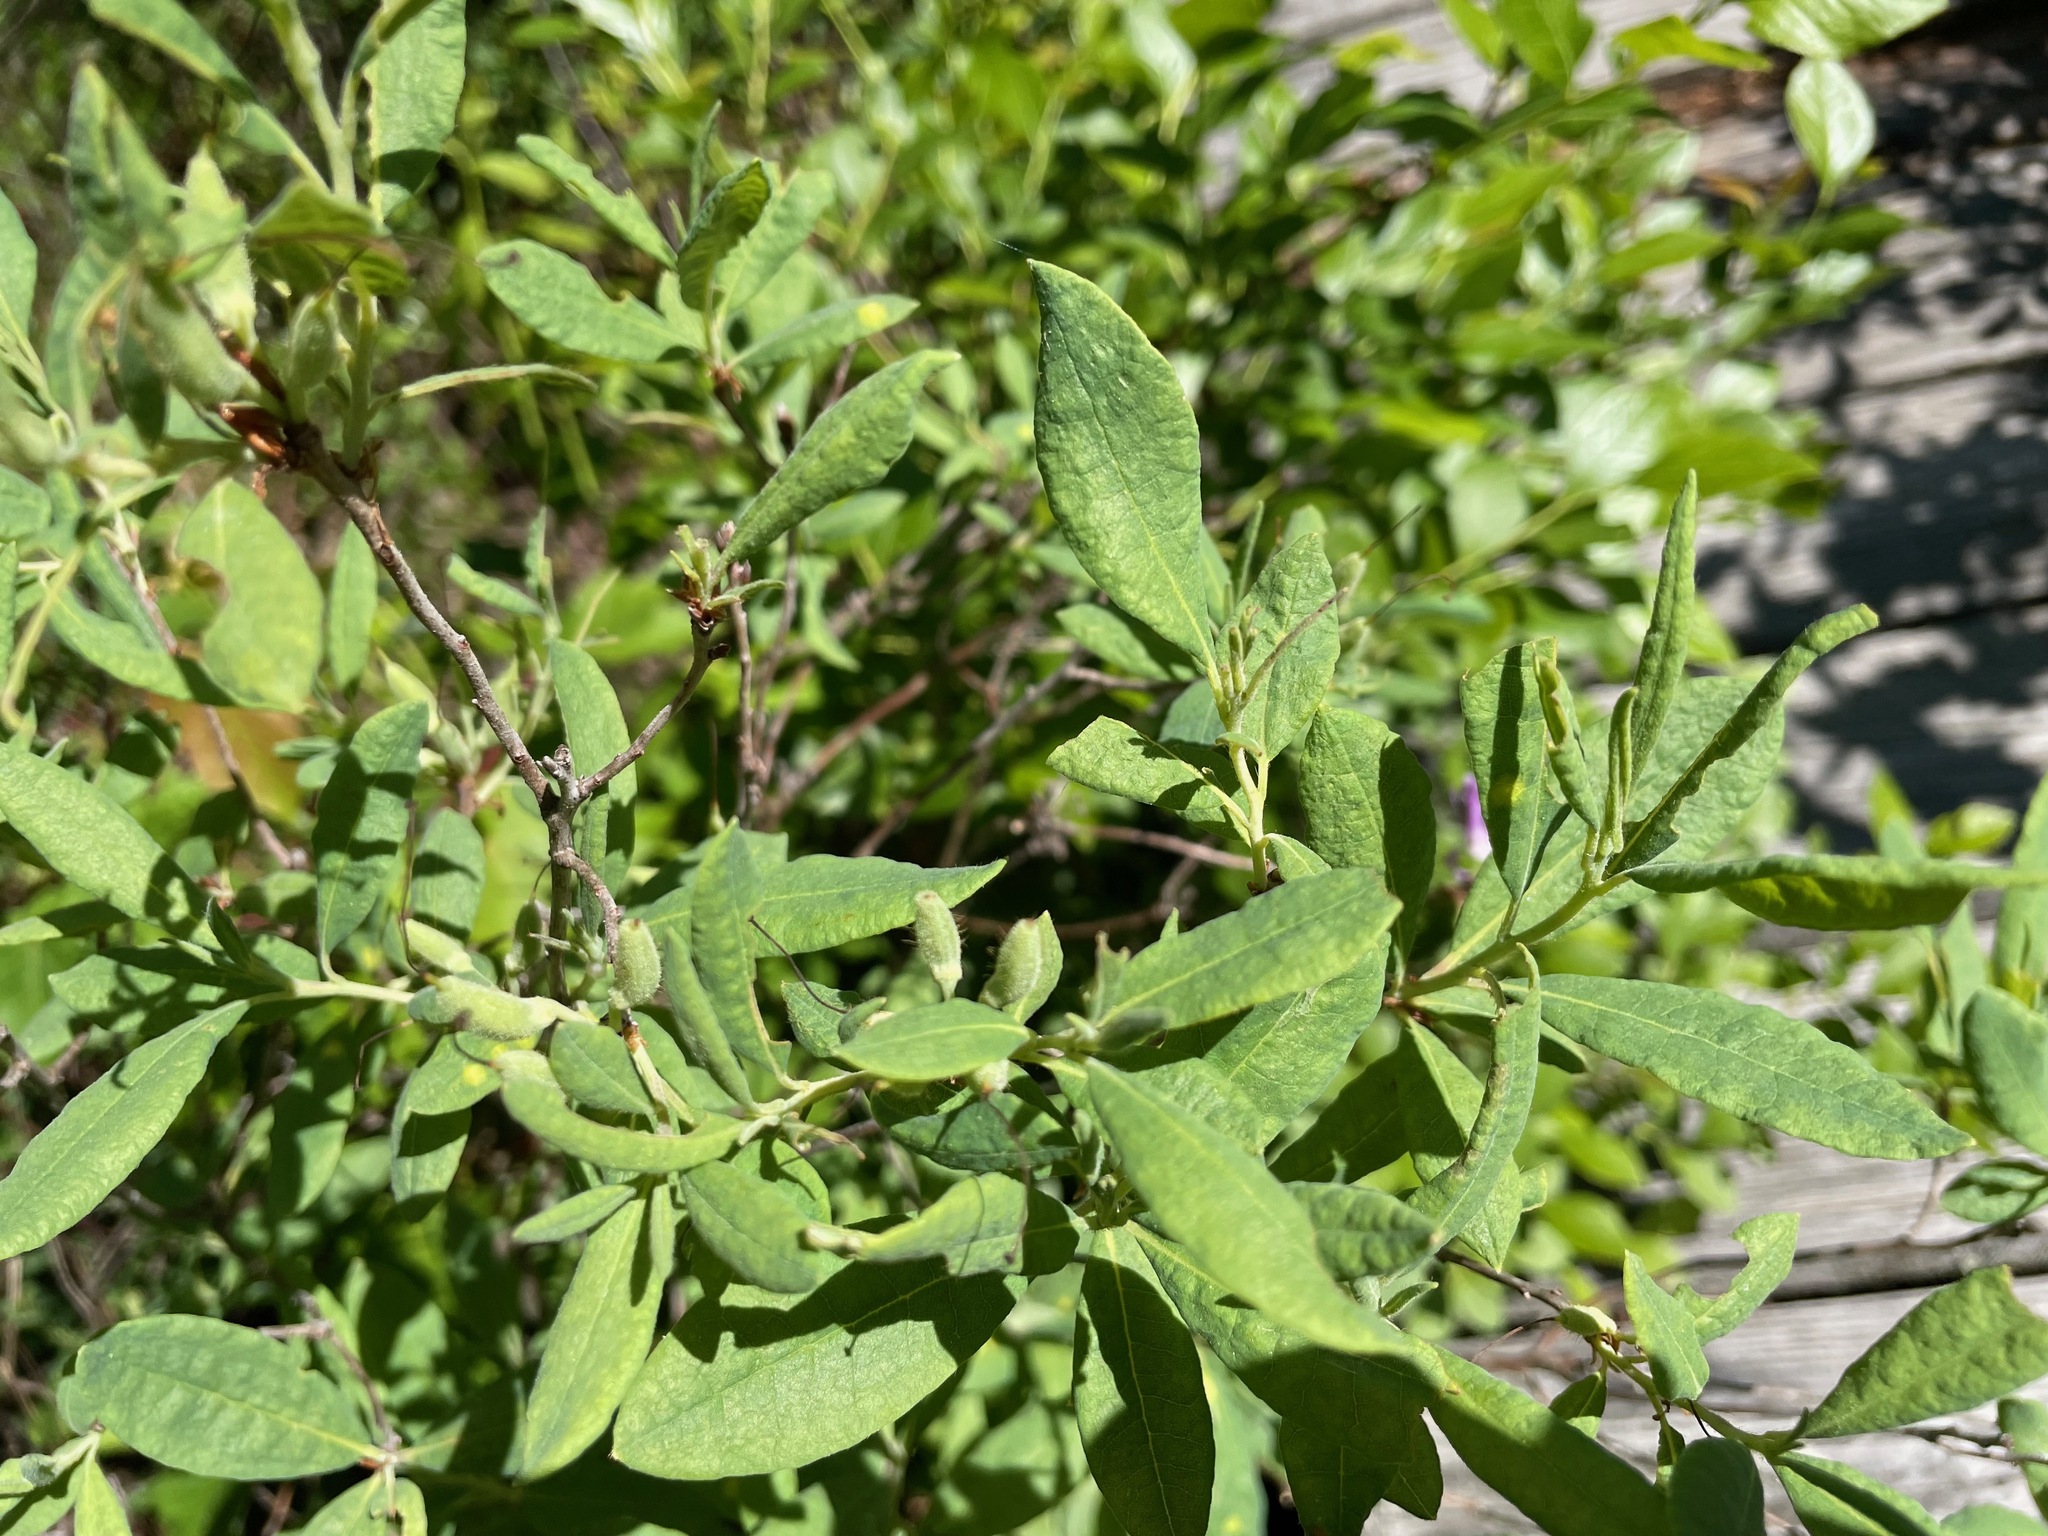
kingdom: Plantae
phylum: Tracheophyta
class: Magnoliopsida
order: Ericales
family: Ericaceae
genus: Rhododendron
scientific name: Rhododendron canadense
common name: Rhodora
